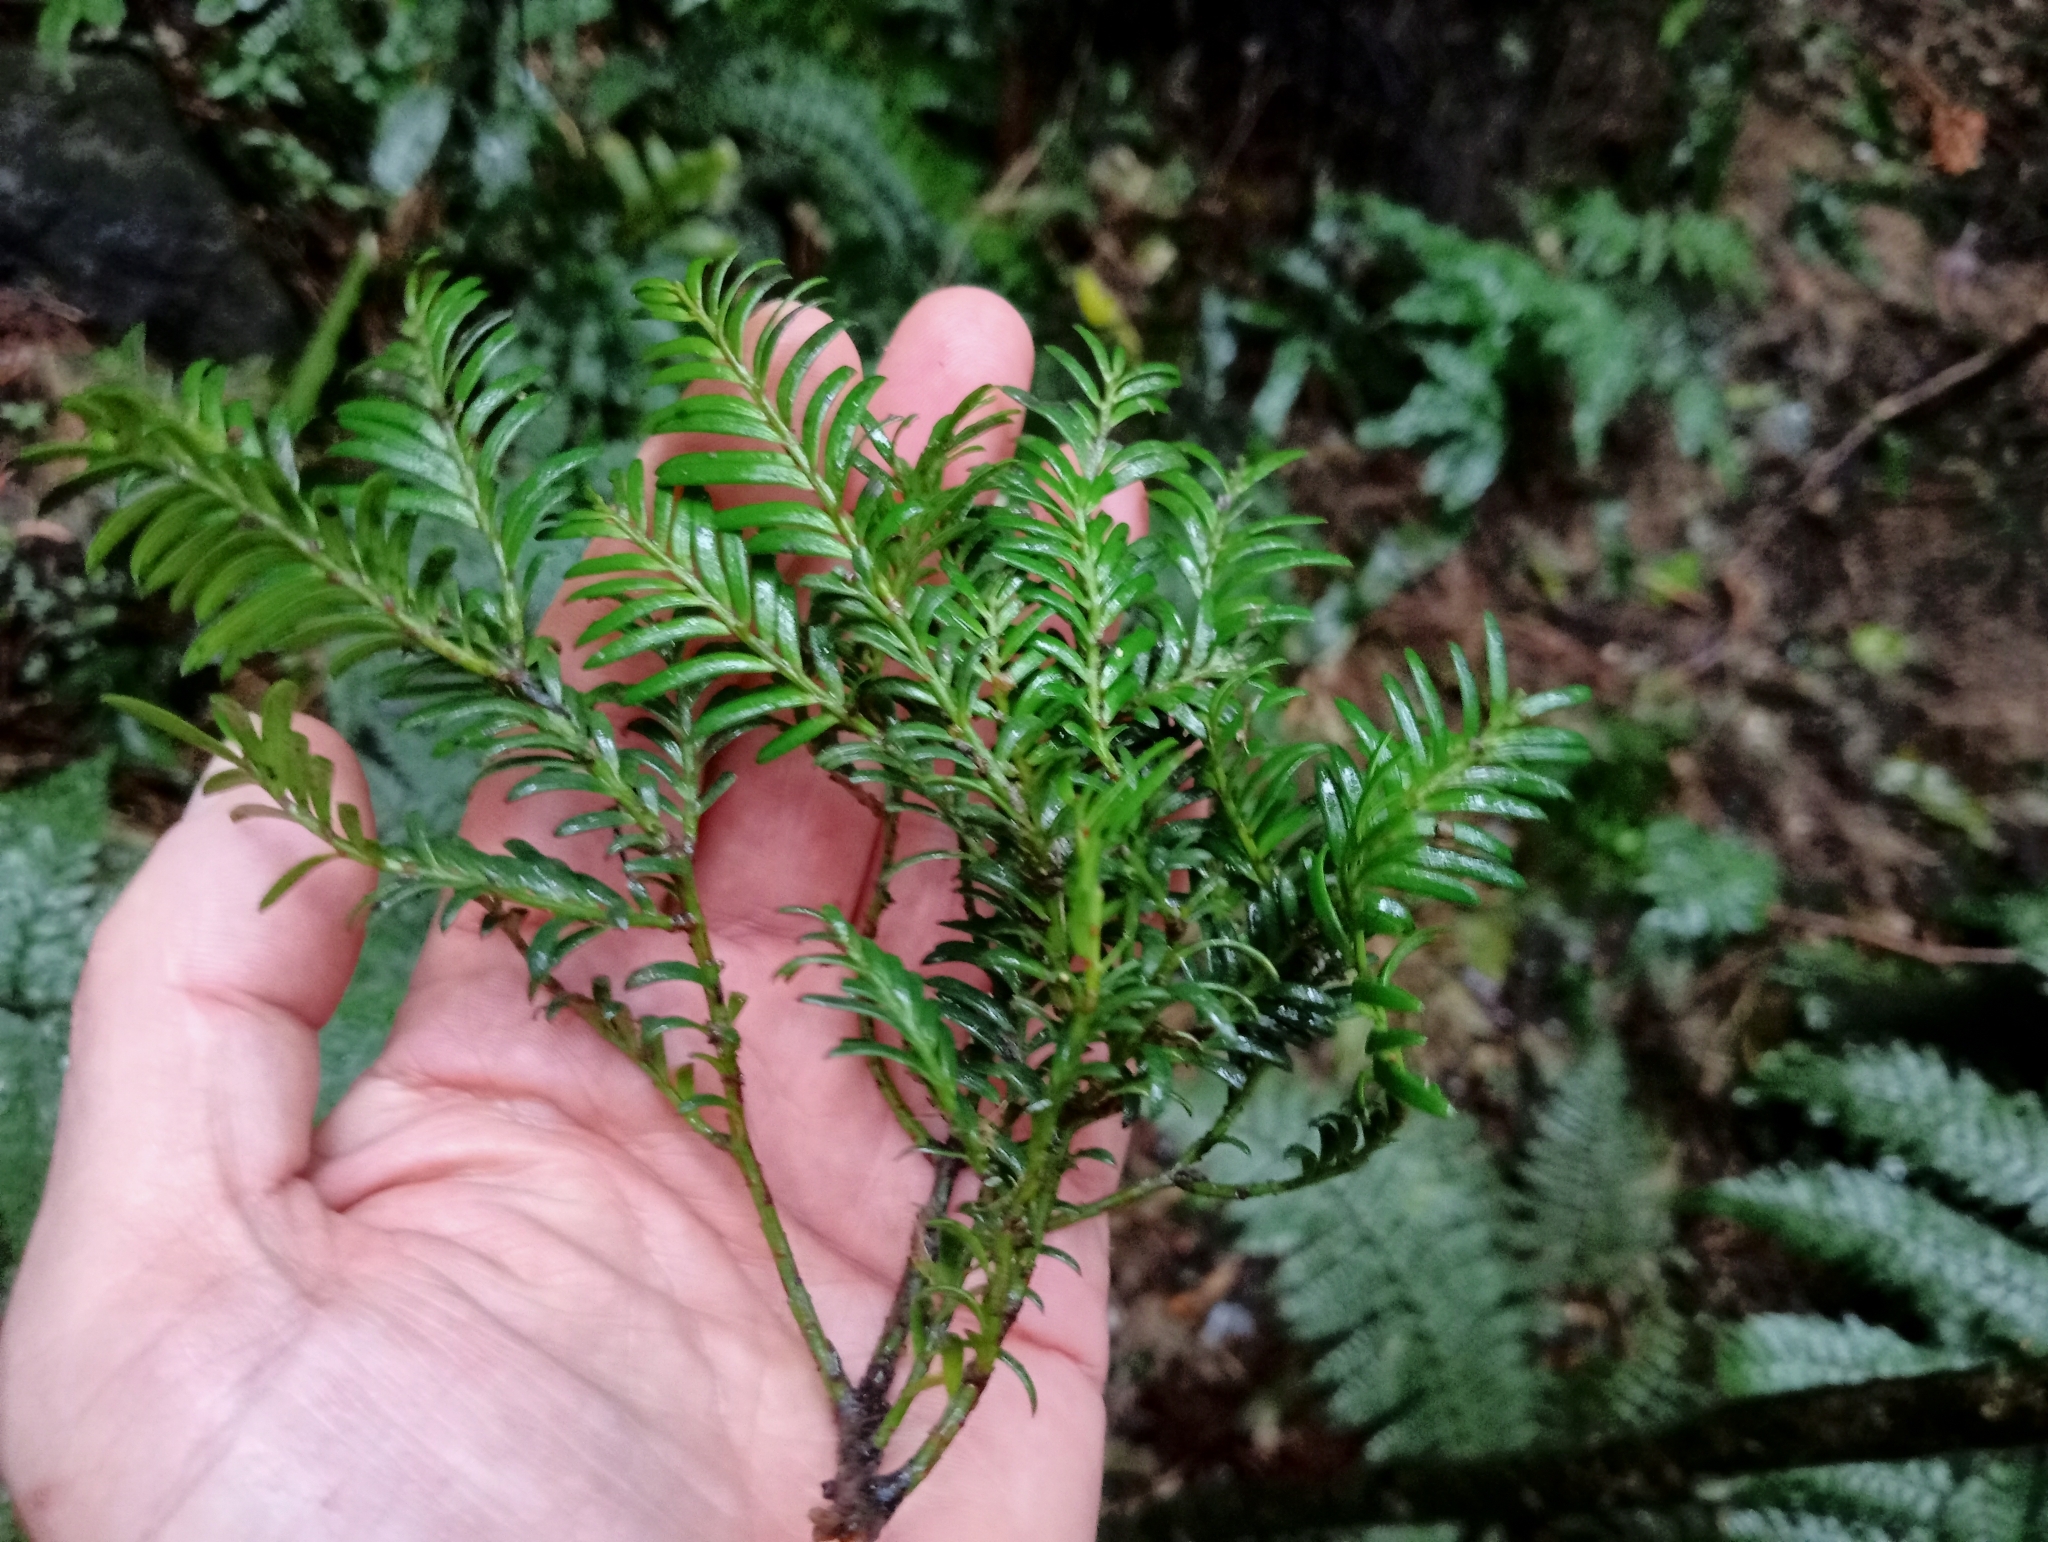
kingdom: Plantae
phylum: Tracheophyta
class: Pinopsida
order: Pinales
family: Podocarpaceae
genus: Prumnopitys
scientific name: Prumnopitys ferruginea
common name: Brown pine
